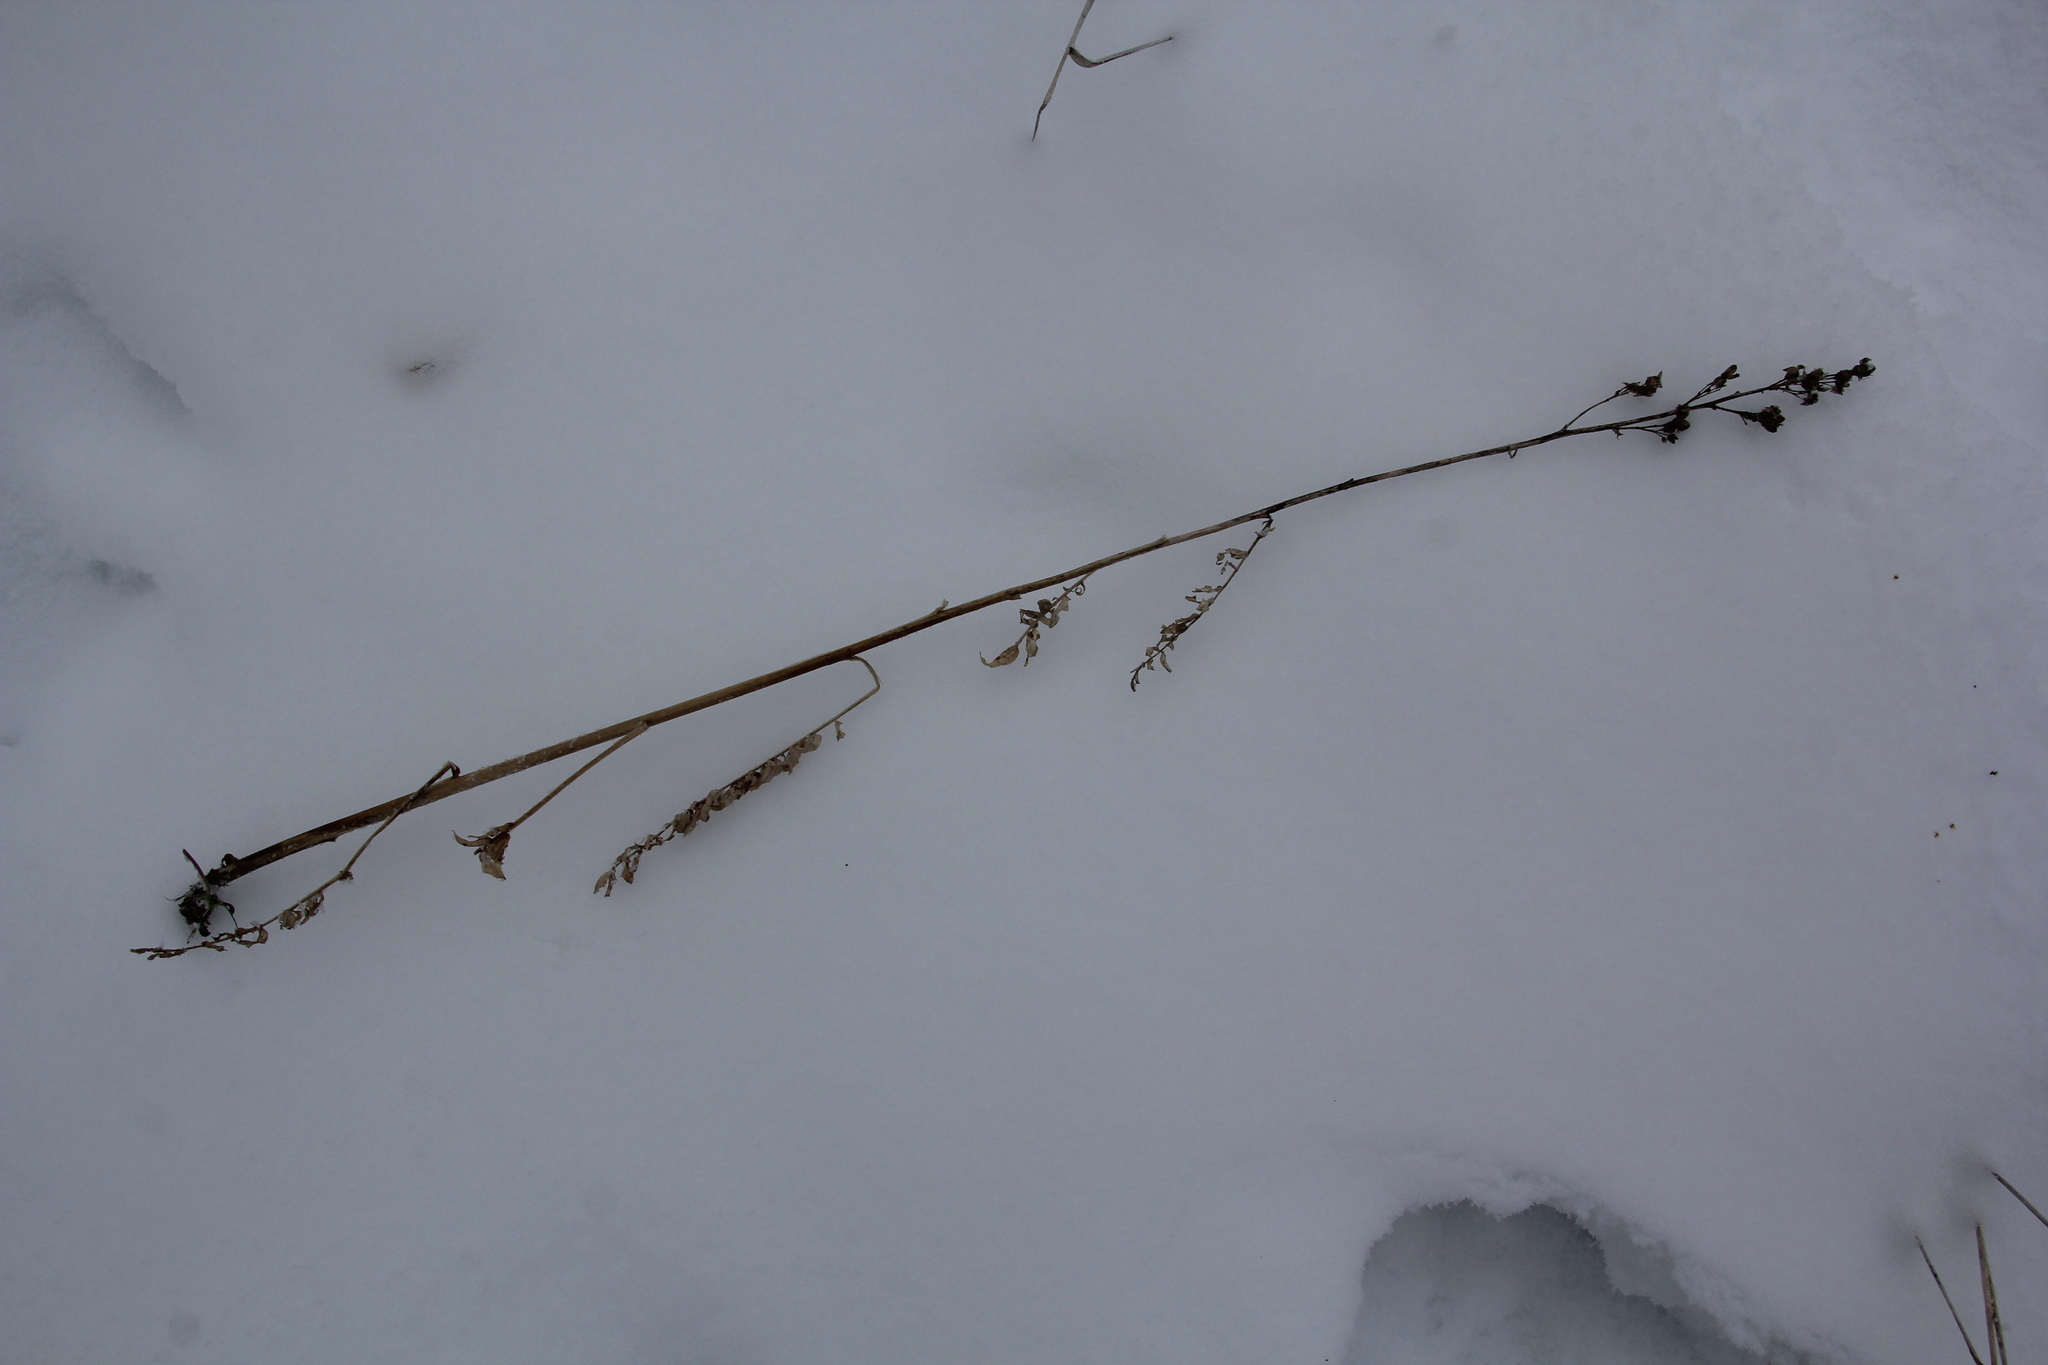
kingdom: Plantae
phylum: Tracheophyta
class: Magnoliopsida
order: Ericales
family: Polemoniaceae
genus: Polemonium
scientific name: Polemonium caeruleum
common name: Jacob's-ladder
